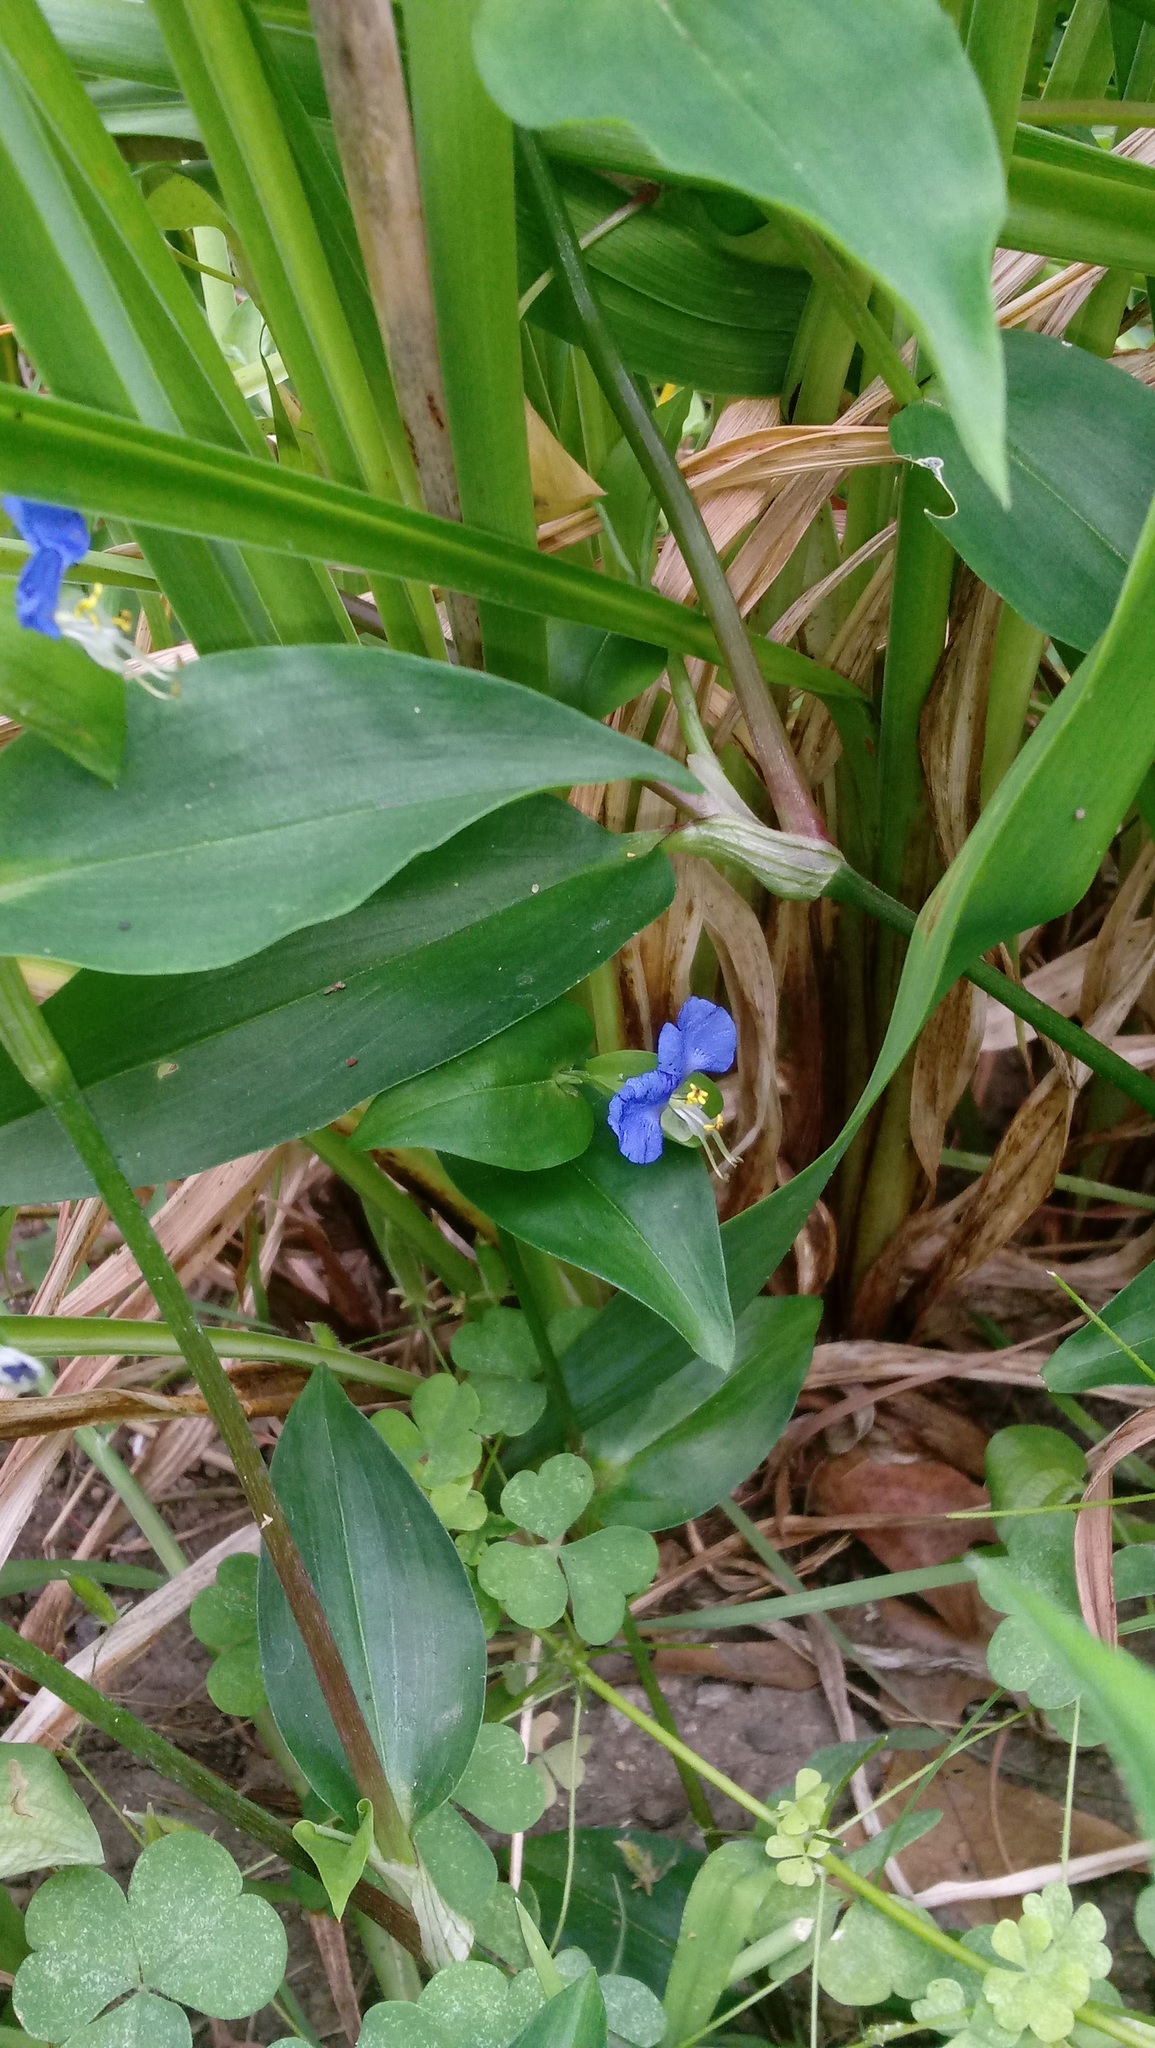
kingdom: Plantae
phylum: Tracheophyta
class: Liliopsida
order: Commelinales
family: Commelinaceae
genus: Commelina
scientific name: Commelina communis
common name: Asiatic dayflower
